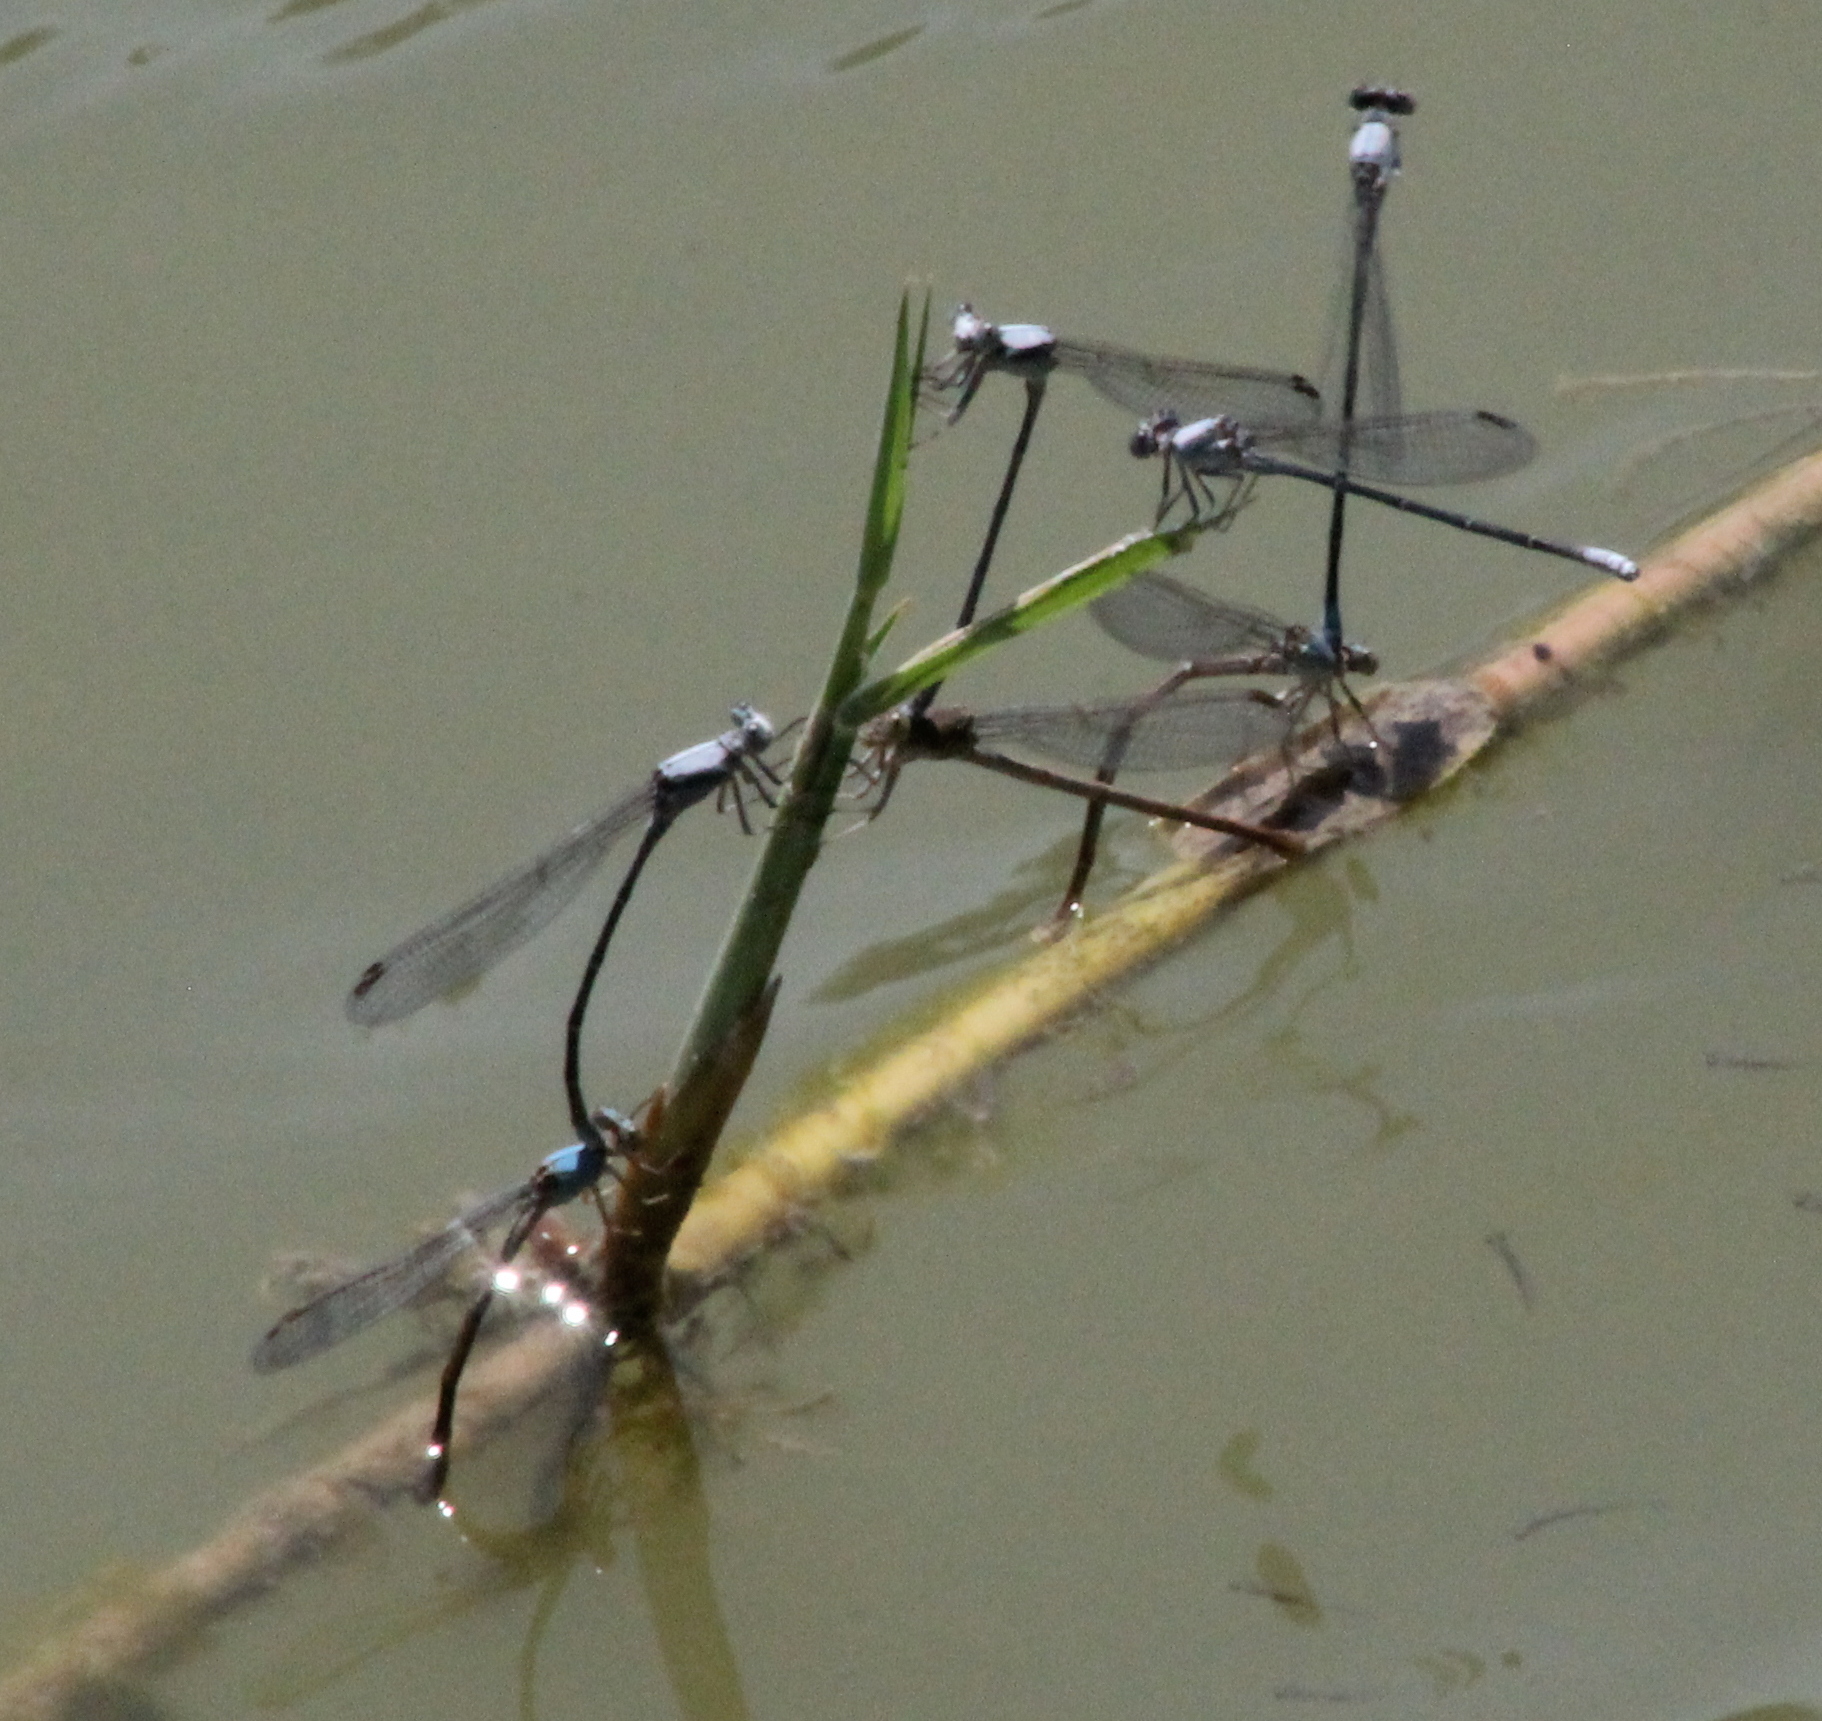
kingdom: Animalia
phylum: Arthropoda
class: Insecta
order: Odonata
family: Coenagrionidae
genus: Argia
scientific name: Argia moesta
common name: Powdered dancer
